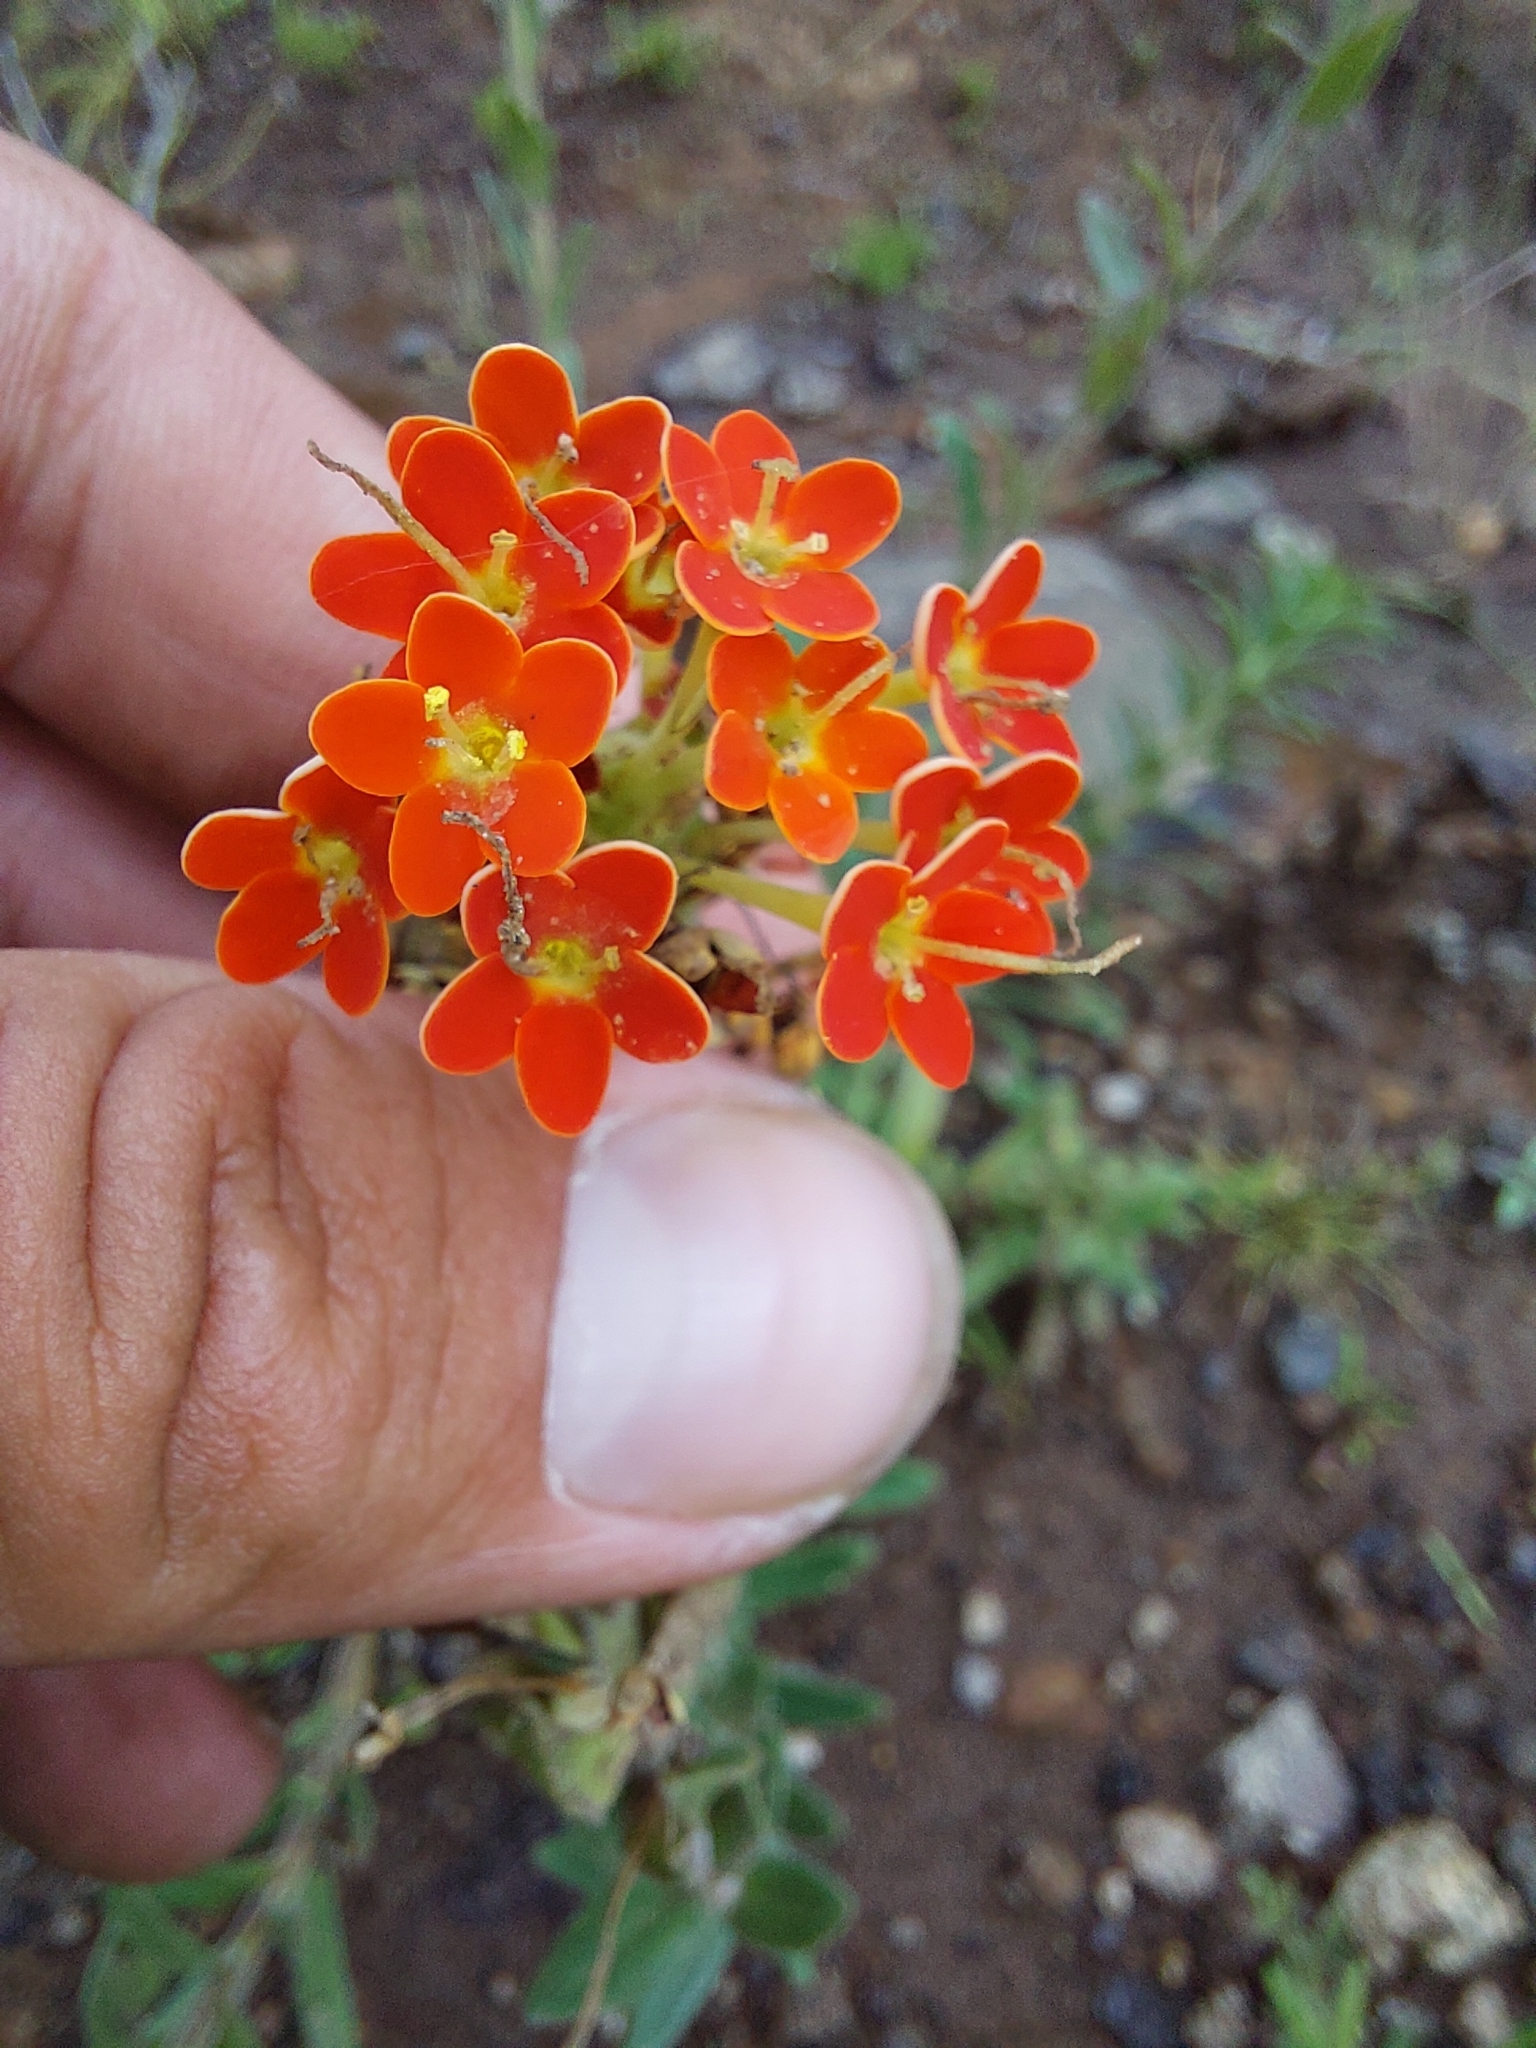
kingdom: Plantae
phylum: Tracheophyta
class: Magnoliopsida
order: Lamiales
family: Scrophulariaceae
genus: Glumicalyx
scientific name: Glumicalyx goseloides
